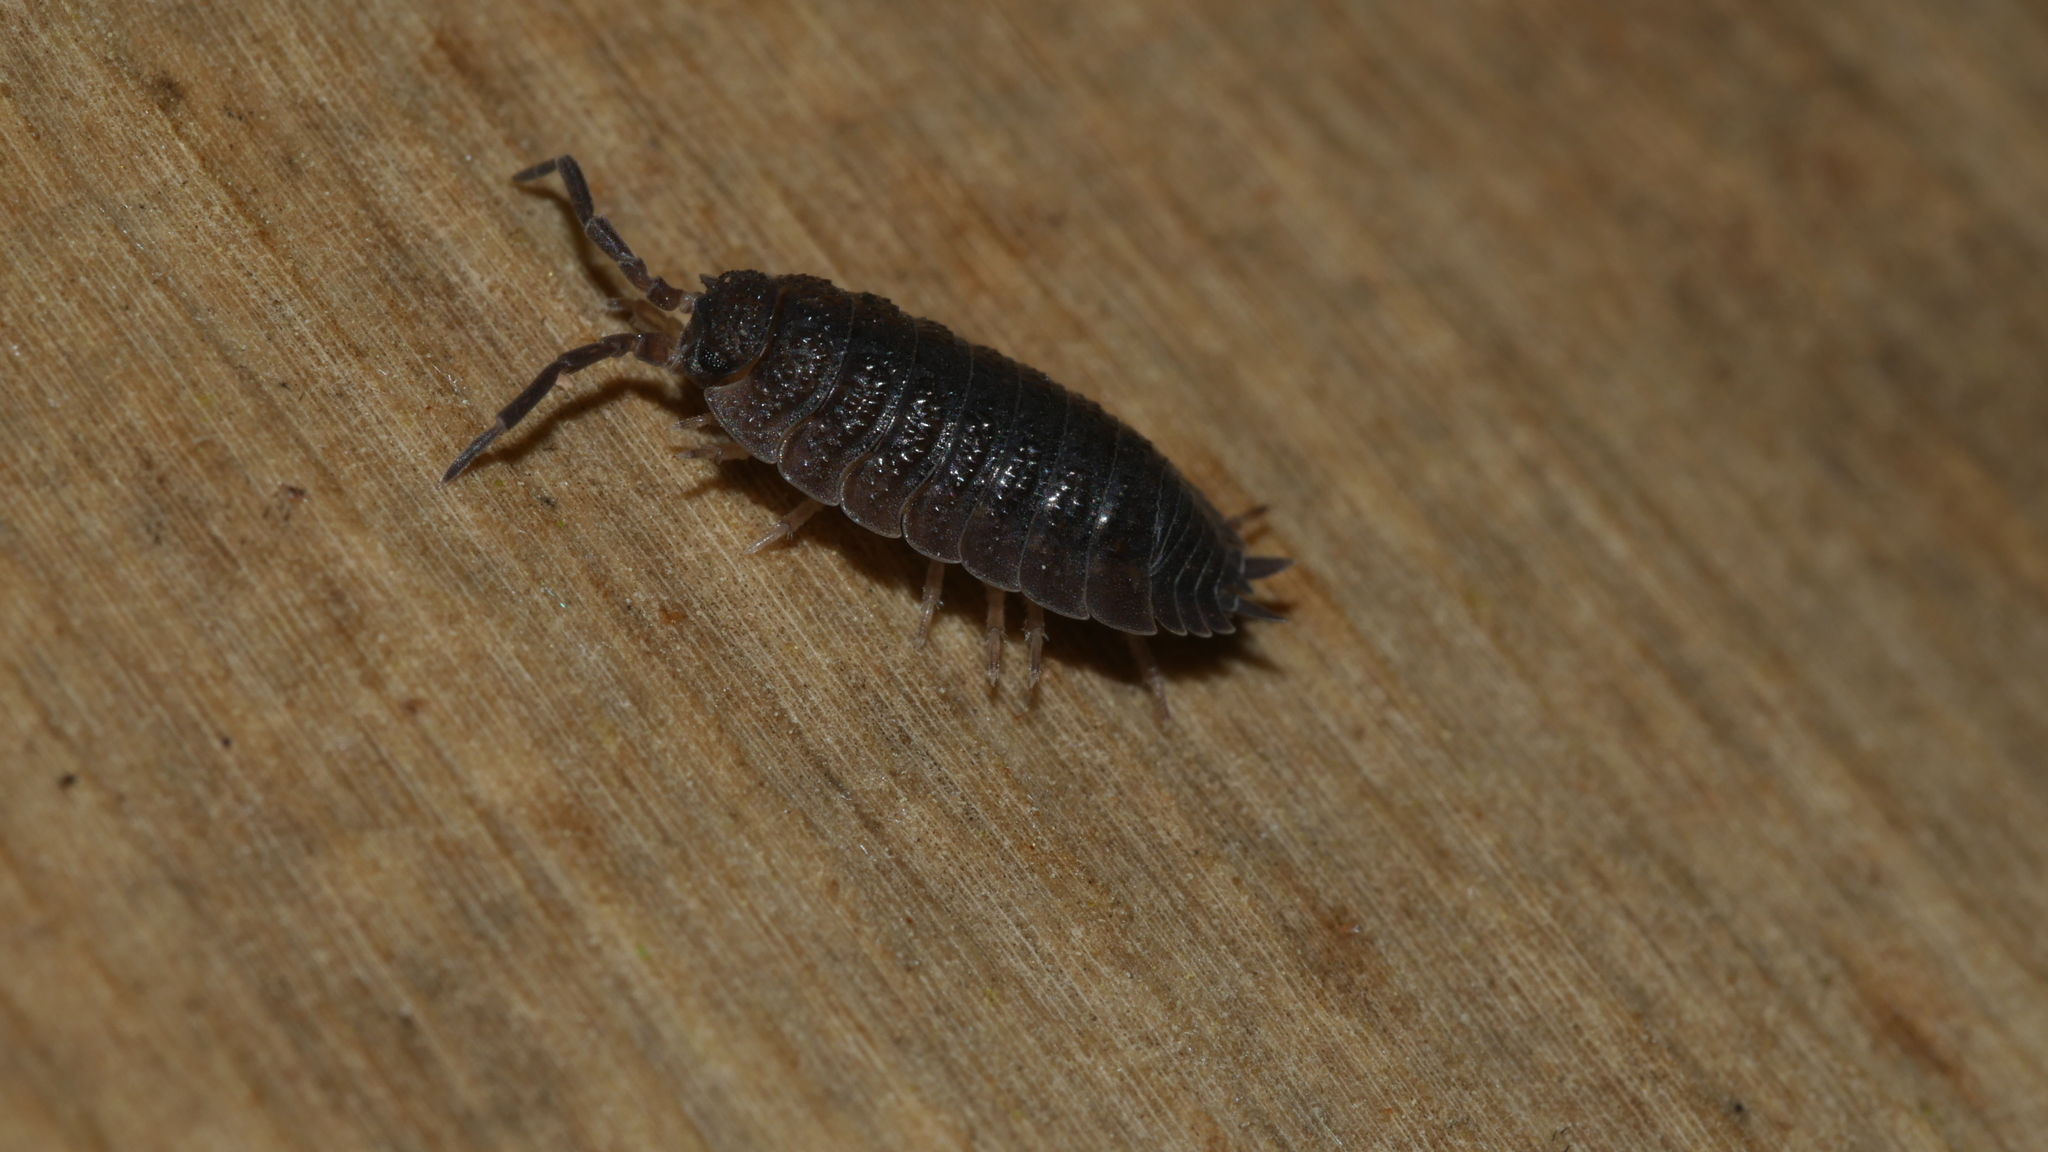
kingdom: Animalia
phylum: Arthropoda
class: Malacostraca
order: Isopoda
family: Porcellionidae
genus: Porcellio
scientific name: Porcellio scaber
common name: Common rough woodlouse
